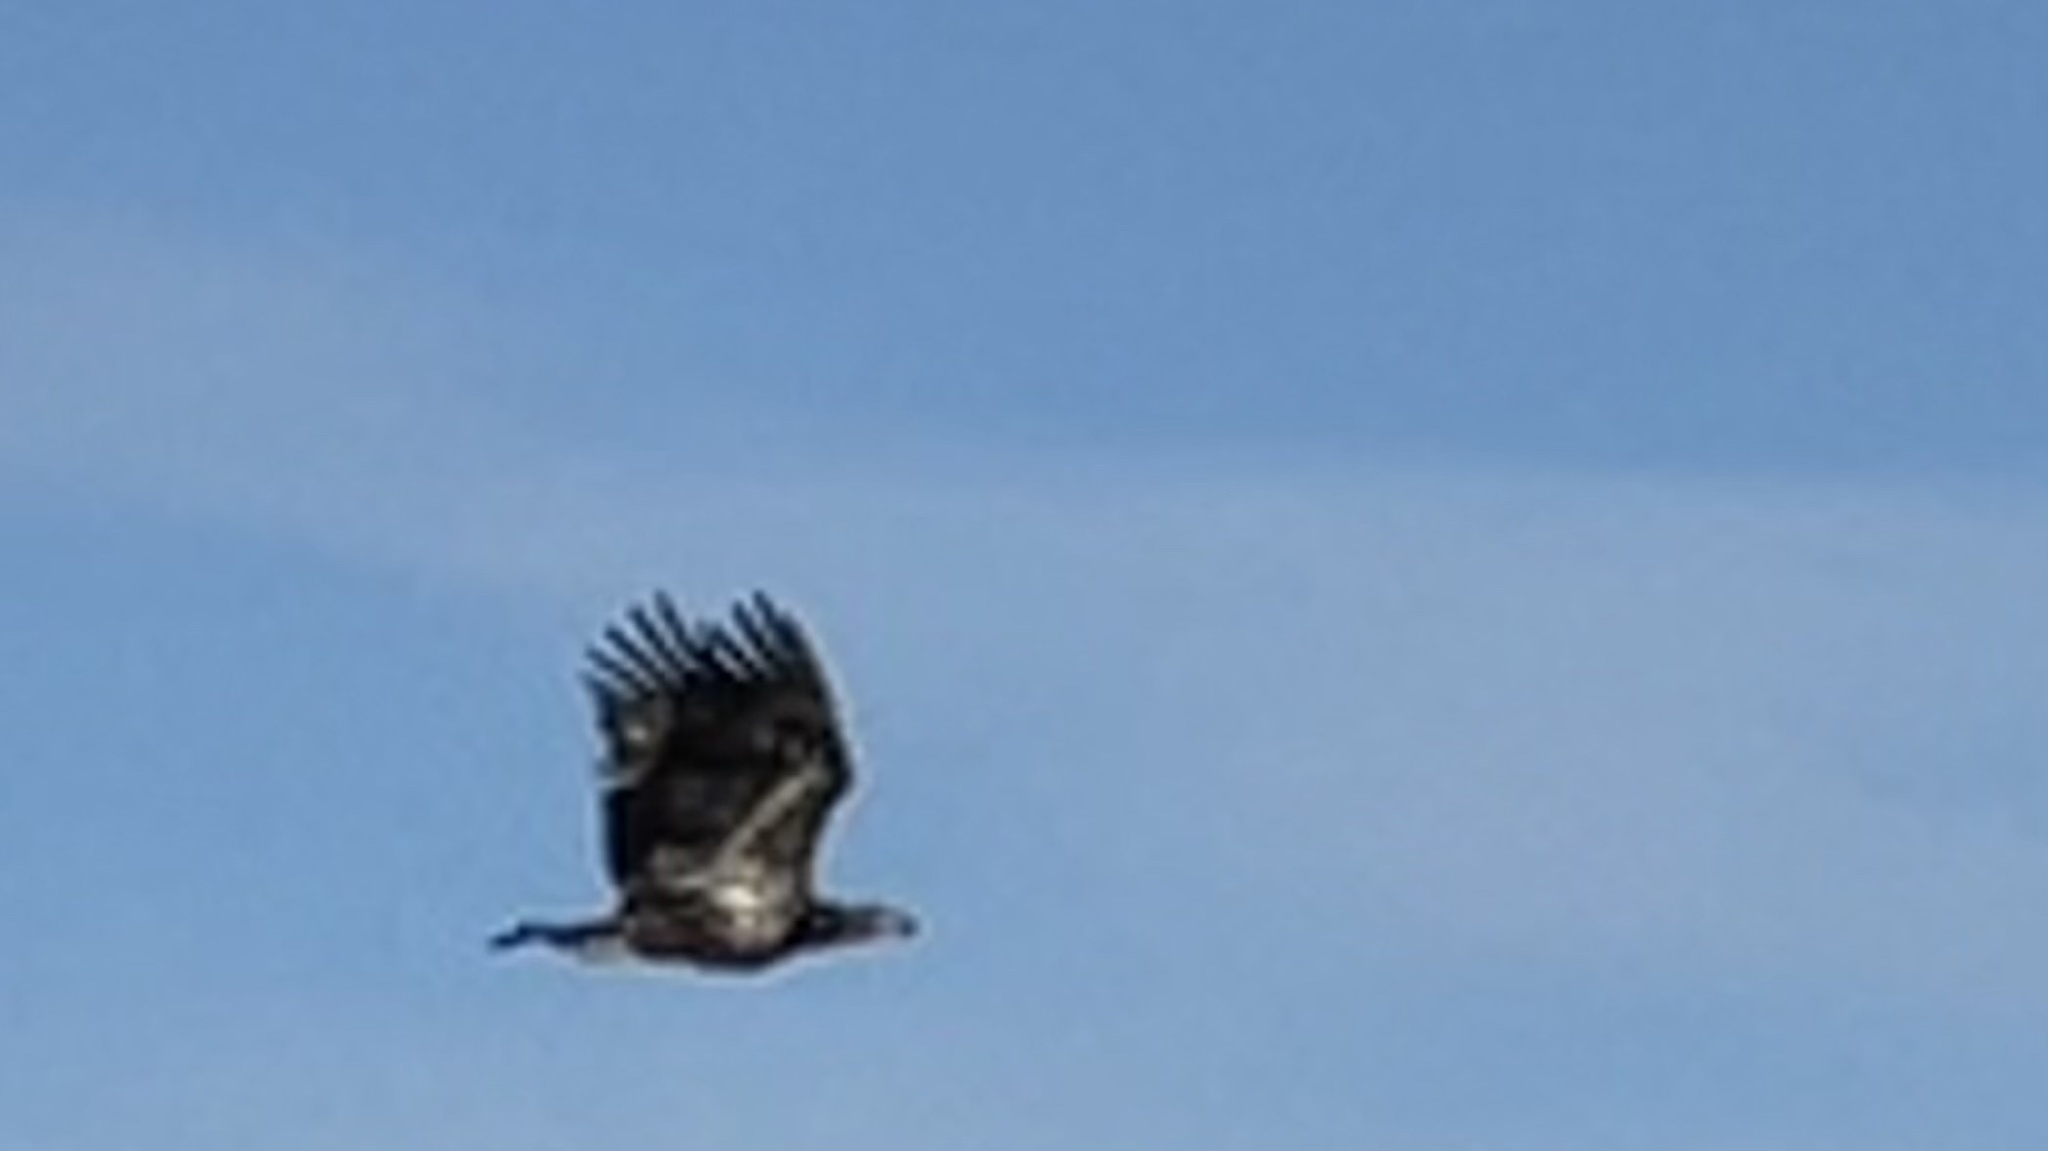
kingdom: Animalia
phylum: Chordata
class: Aves
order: Accipitriformes
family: Accipitridae
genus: Haliaeetus
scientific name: Haliaeetus leucocephalus
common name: Bald eagle
